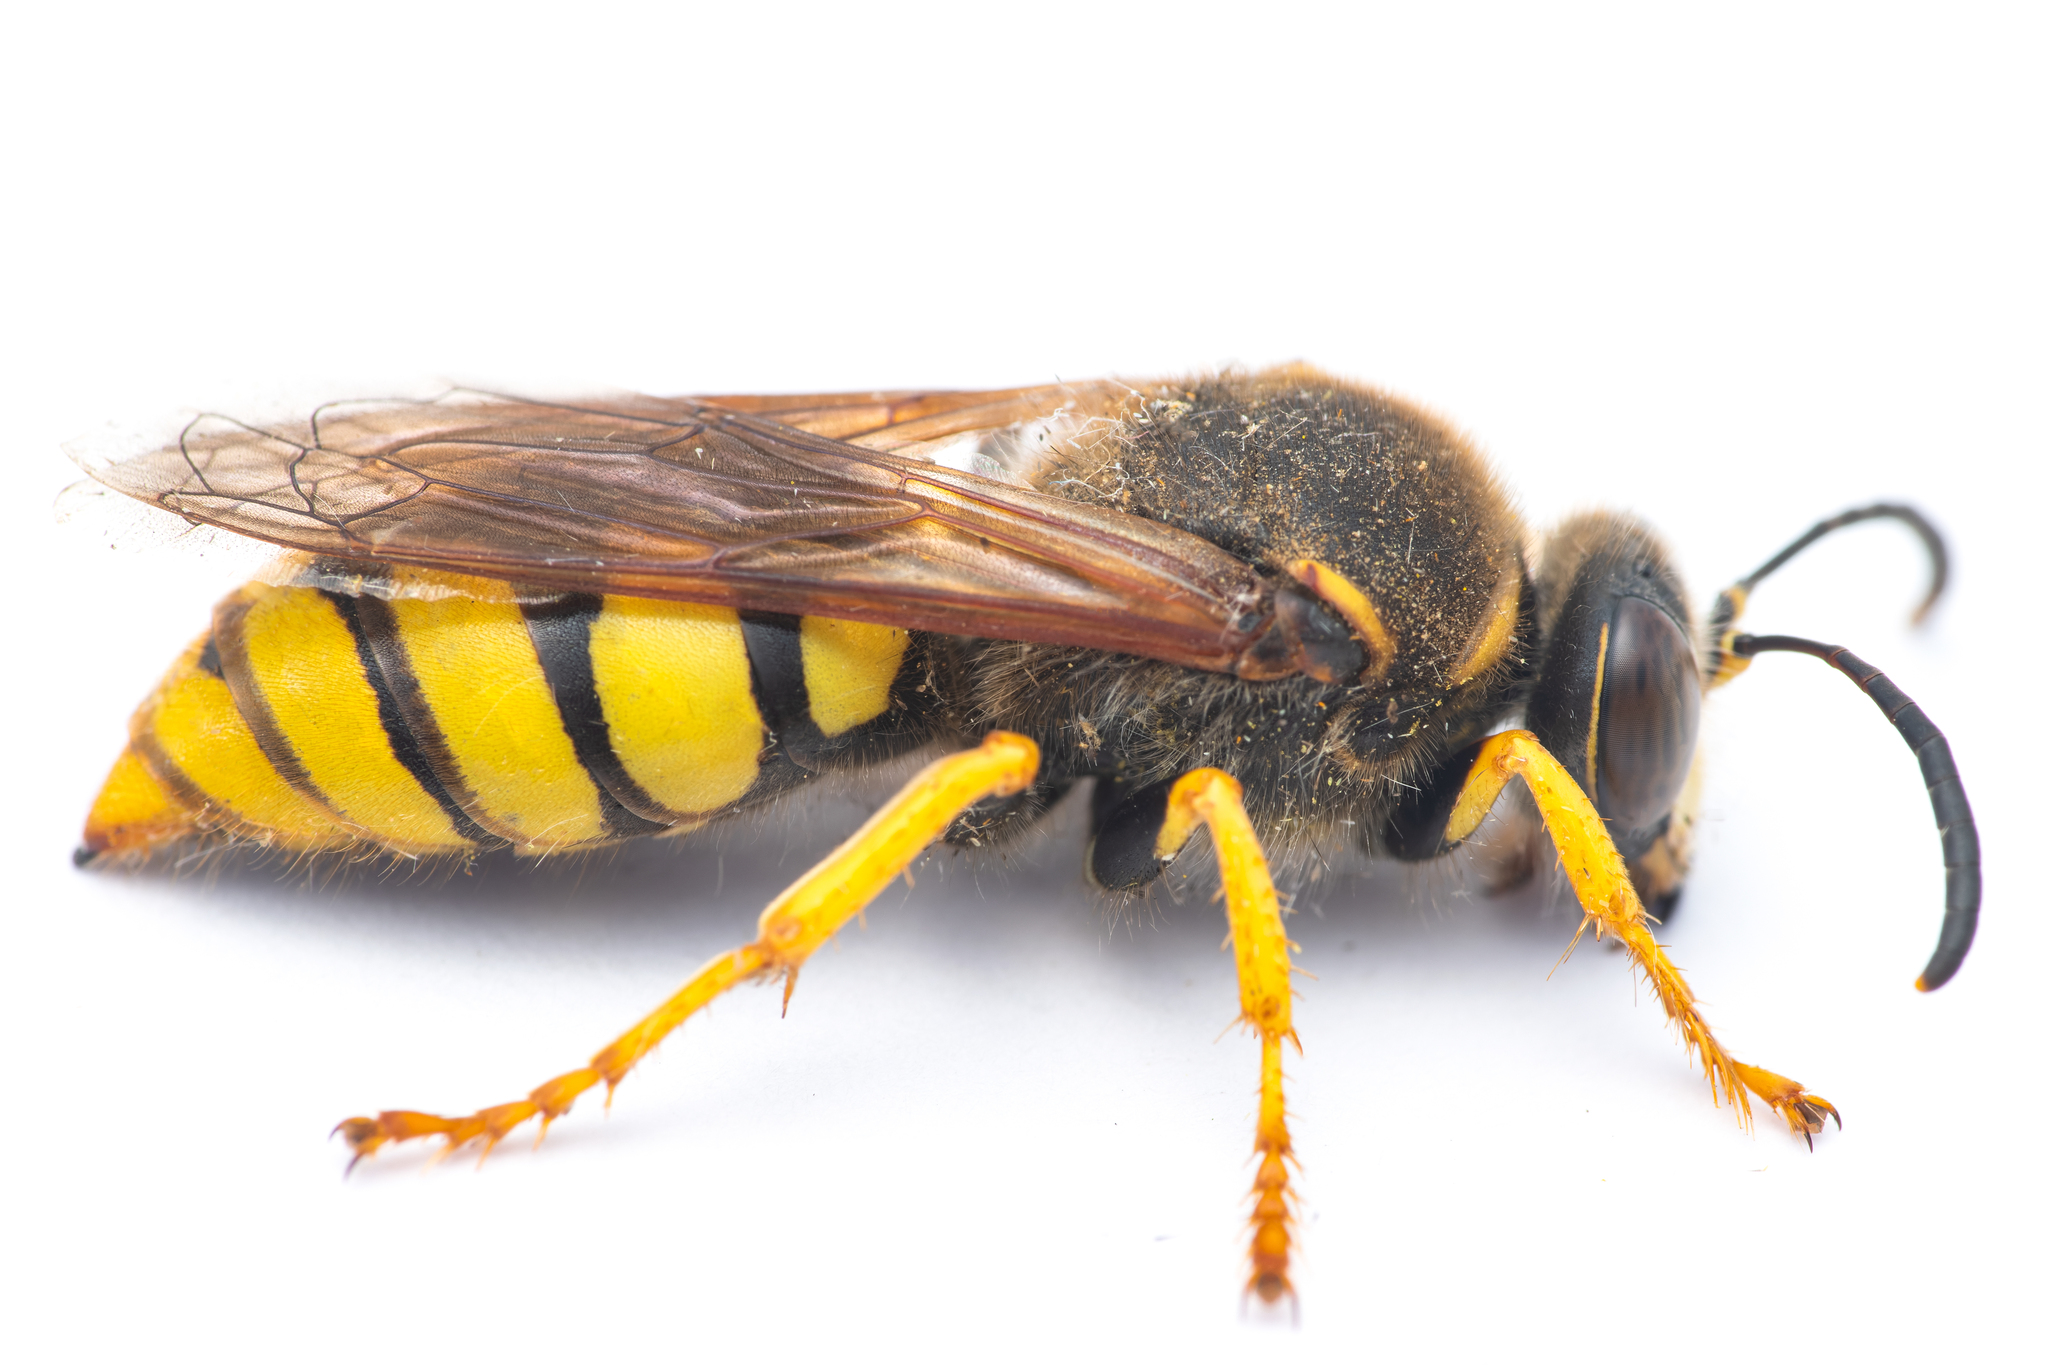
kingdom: Animalia
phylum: Arthropoda
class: Insecta
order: Hymenoptera
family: Crabronidae
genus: Stizus
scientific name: Stizus hispanicus
